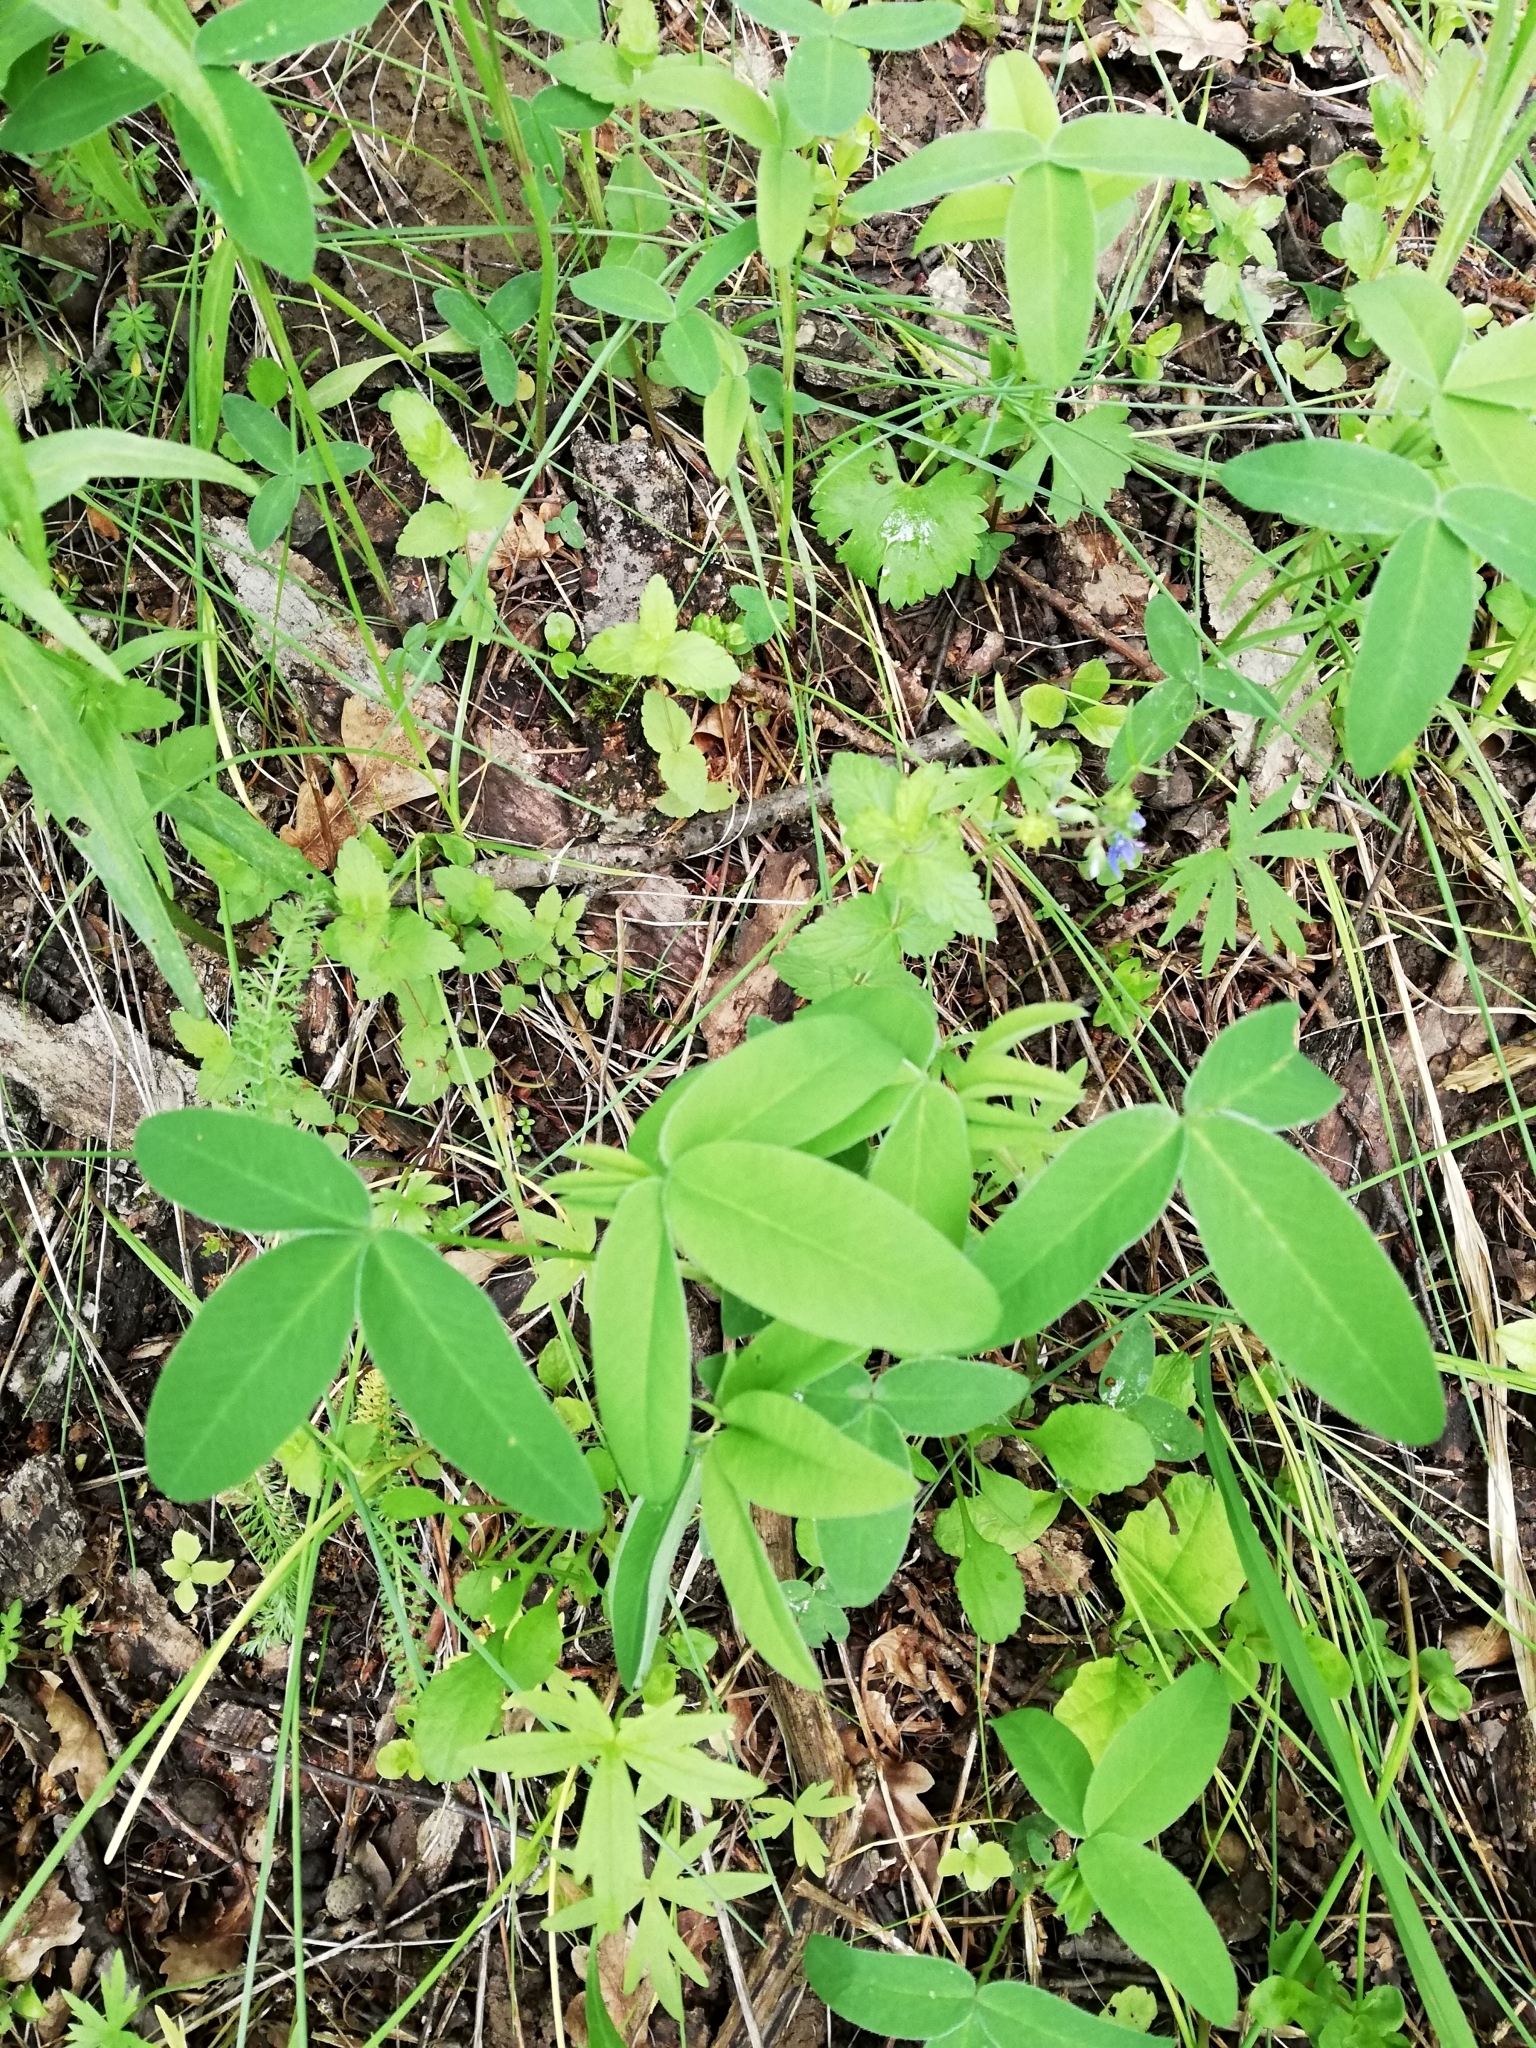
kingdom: Plantae
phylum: Tracheophyta
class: Magnoliopsida
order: Fabales
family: Fabaceae
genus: Trifolium
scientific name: Trifolium medium
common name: Zigzag clover
